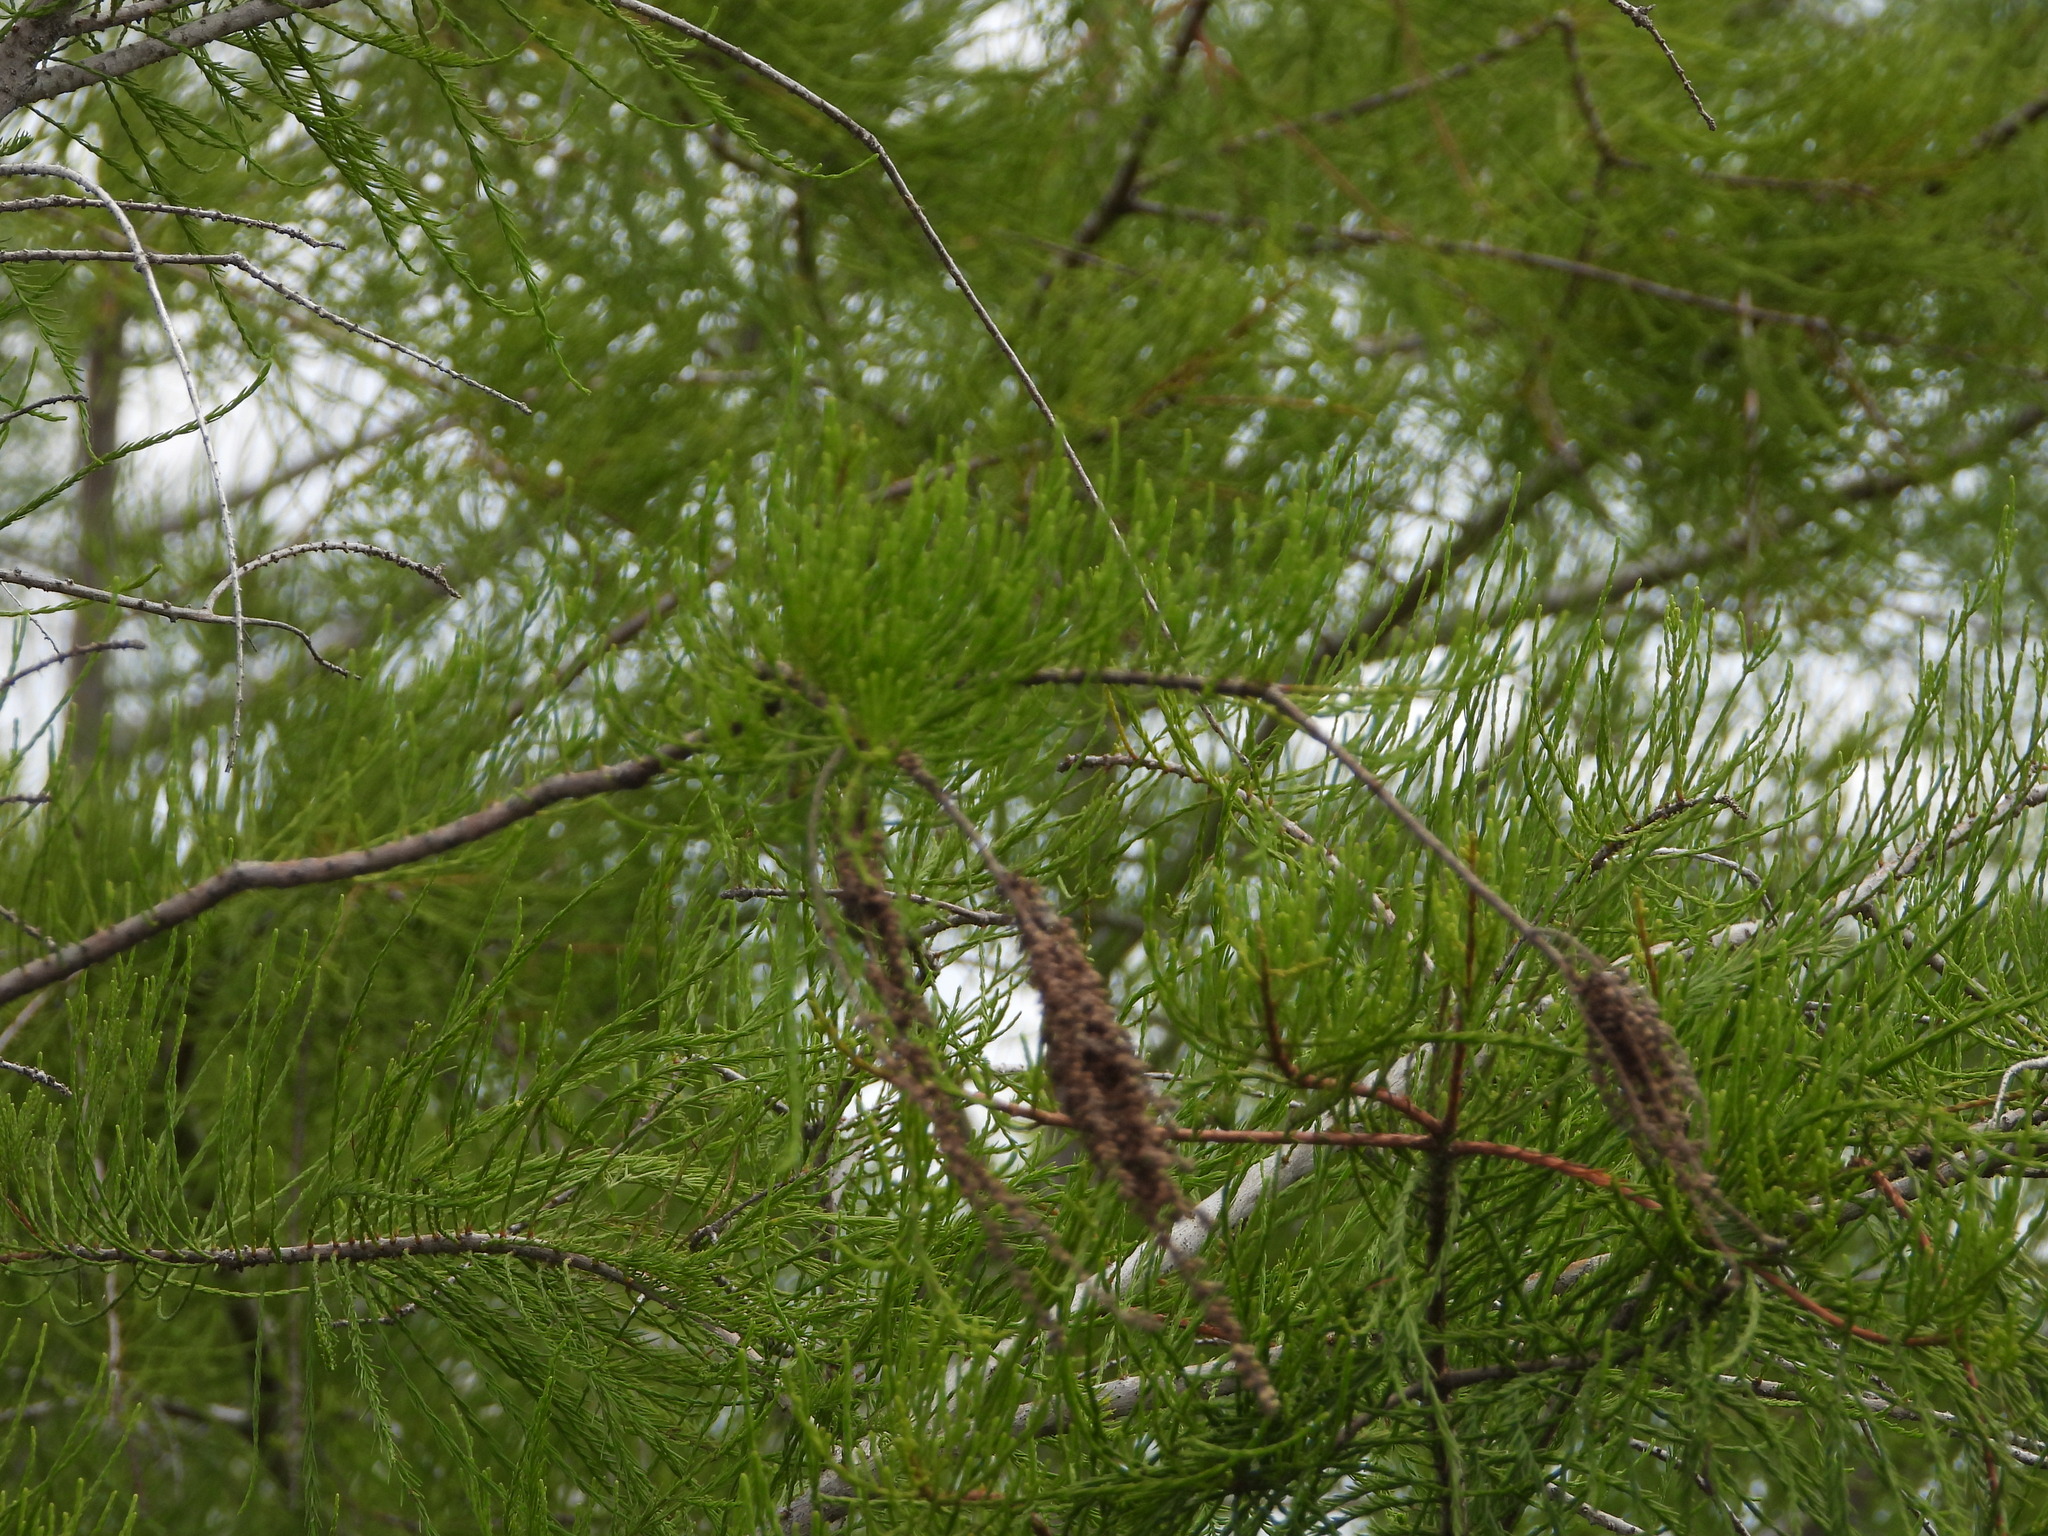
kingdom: Plantae
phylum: Tracheophyta
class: Pinopsida
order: Pinales
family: Cupressaceae
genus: Taxodium
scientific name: Taxodium distichum
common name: Bald cypress
